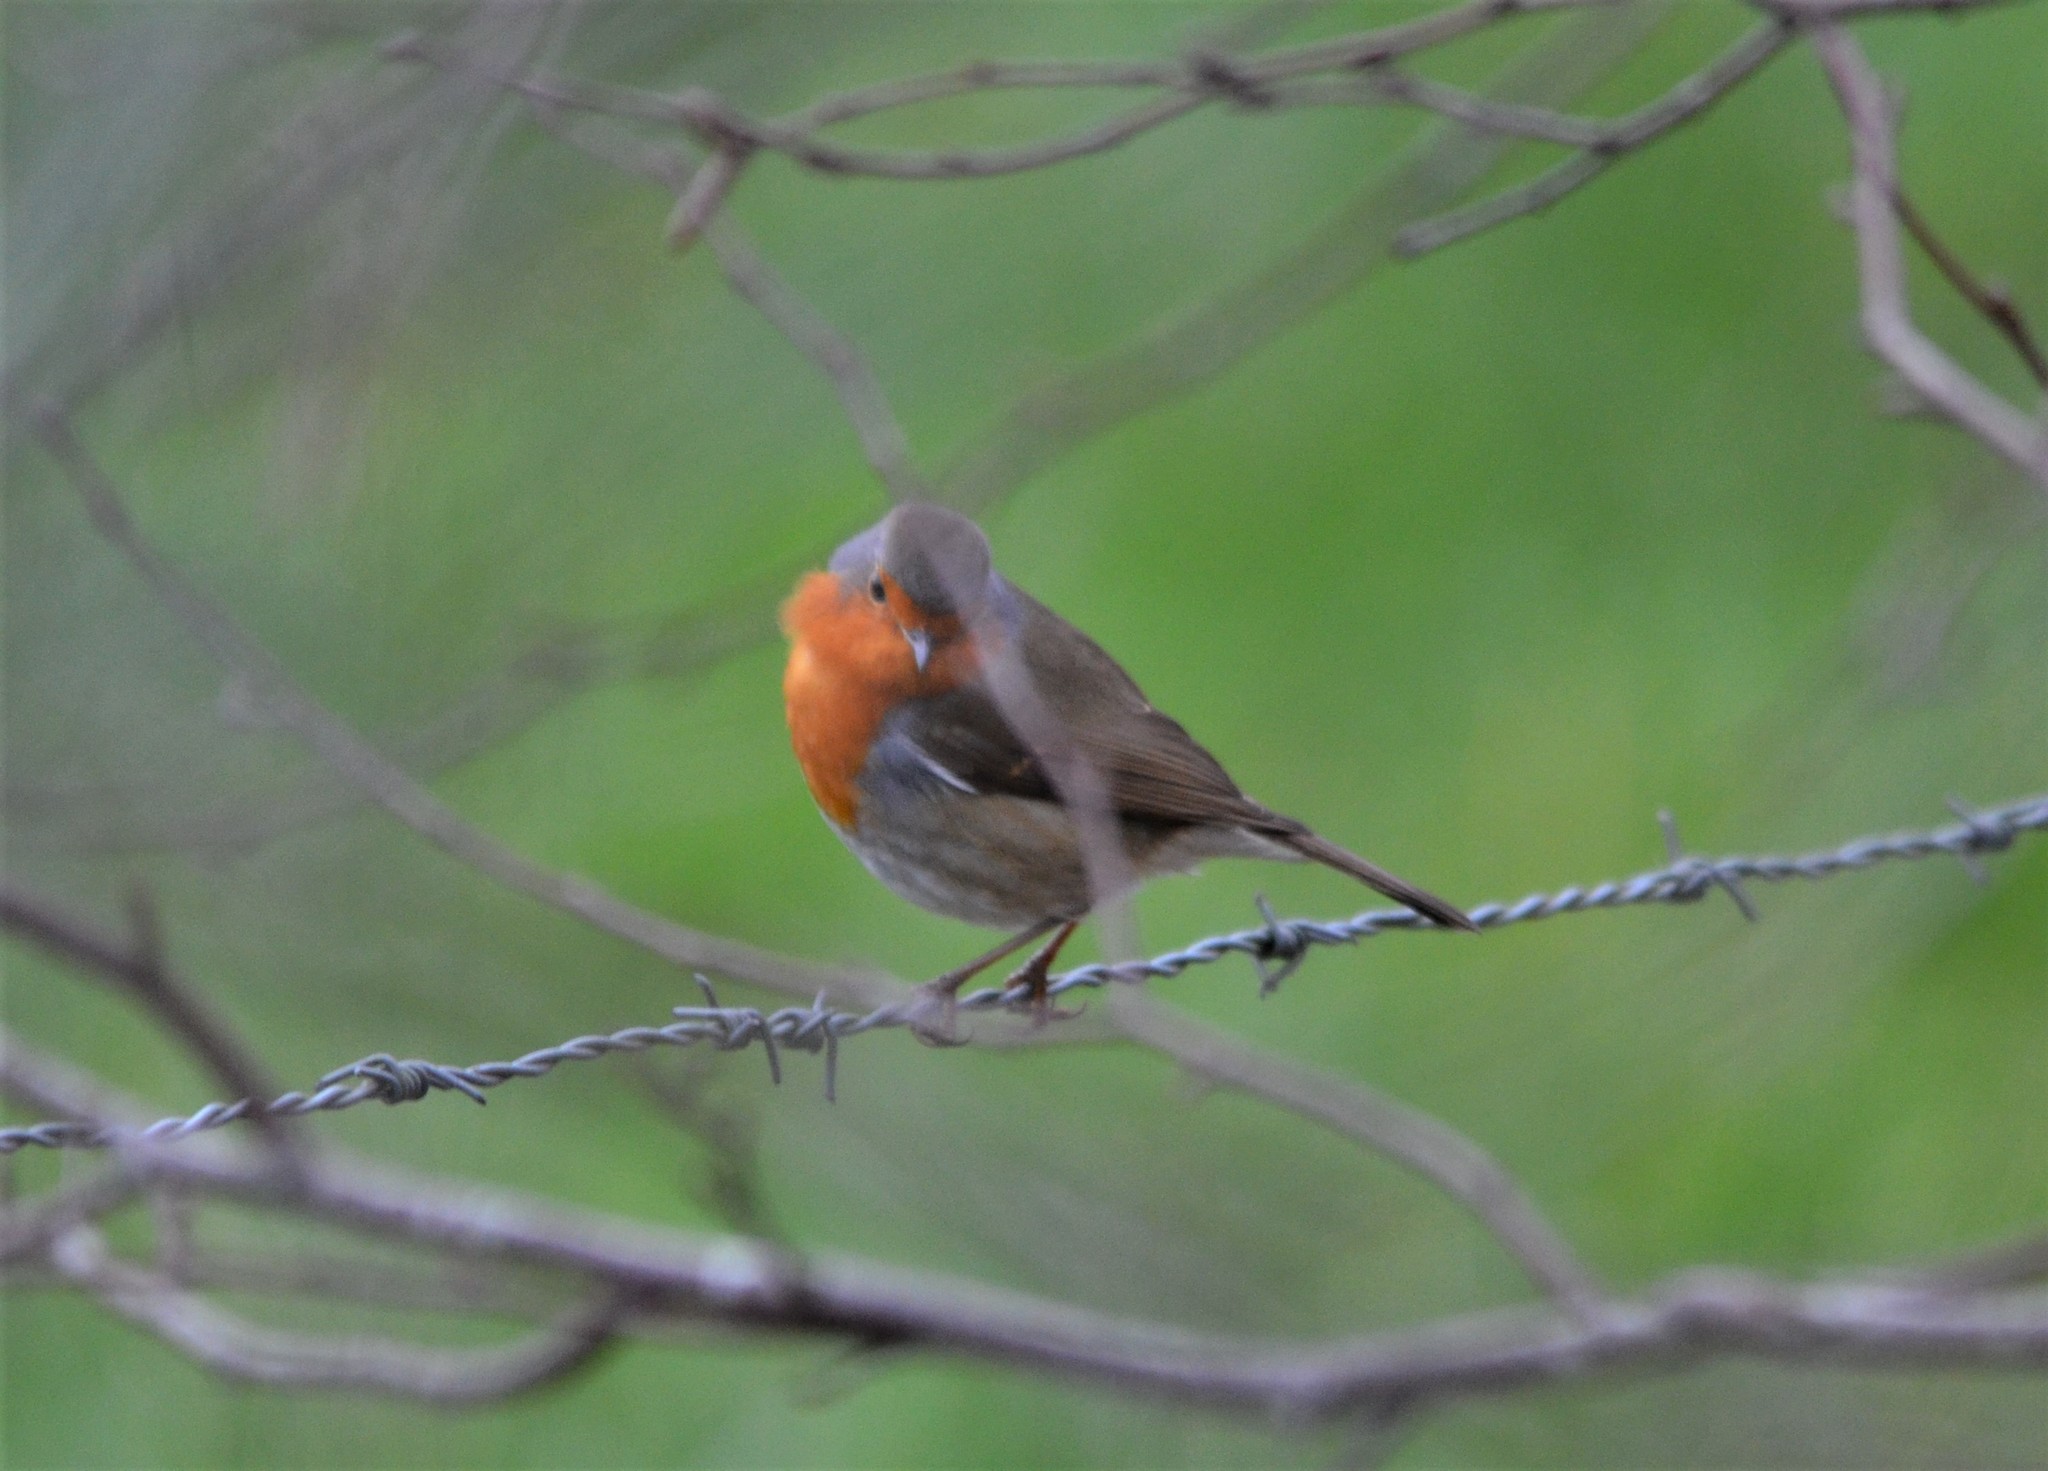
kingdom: Animalia
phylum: Chordata
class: Aves
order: Passeriformes
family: Muscicapidae
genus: Erithacus
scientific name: Erithacus rubecula
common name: European robin
